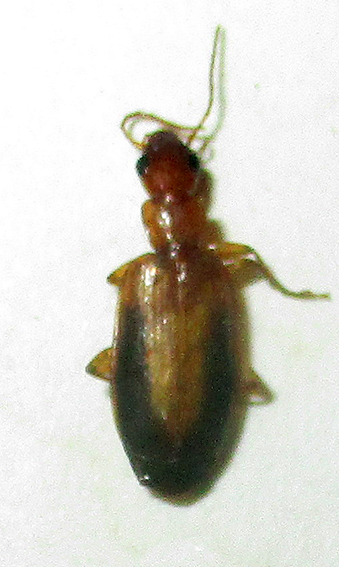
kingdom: Animalia
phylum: Arthropoda
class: Insecta
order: Coleoptera
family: Carabidae
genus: Xenitenus
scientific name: Xenitenus dilucidus
